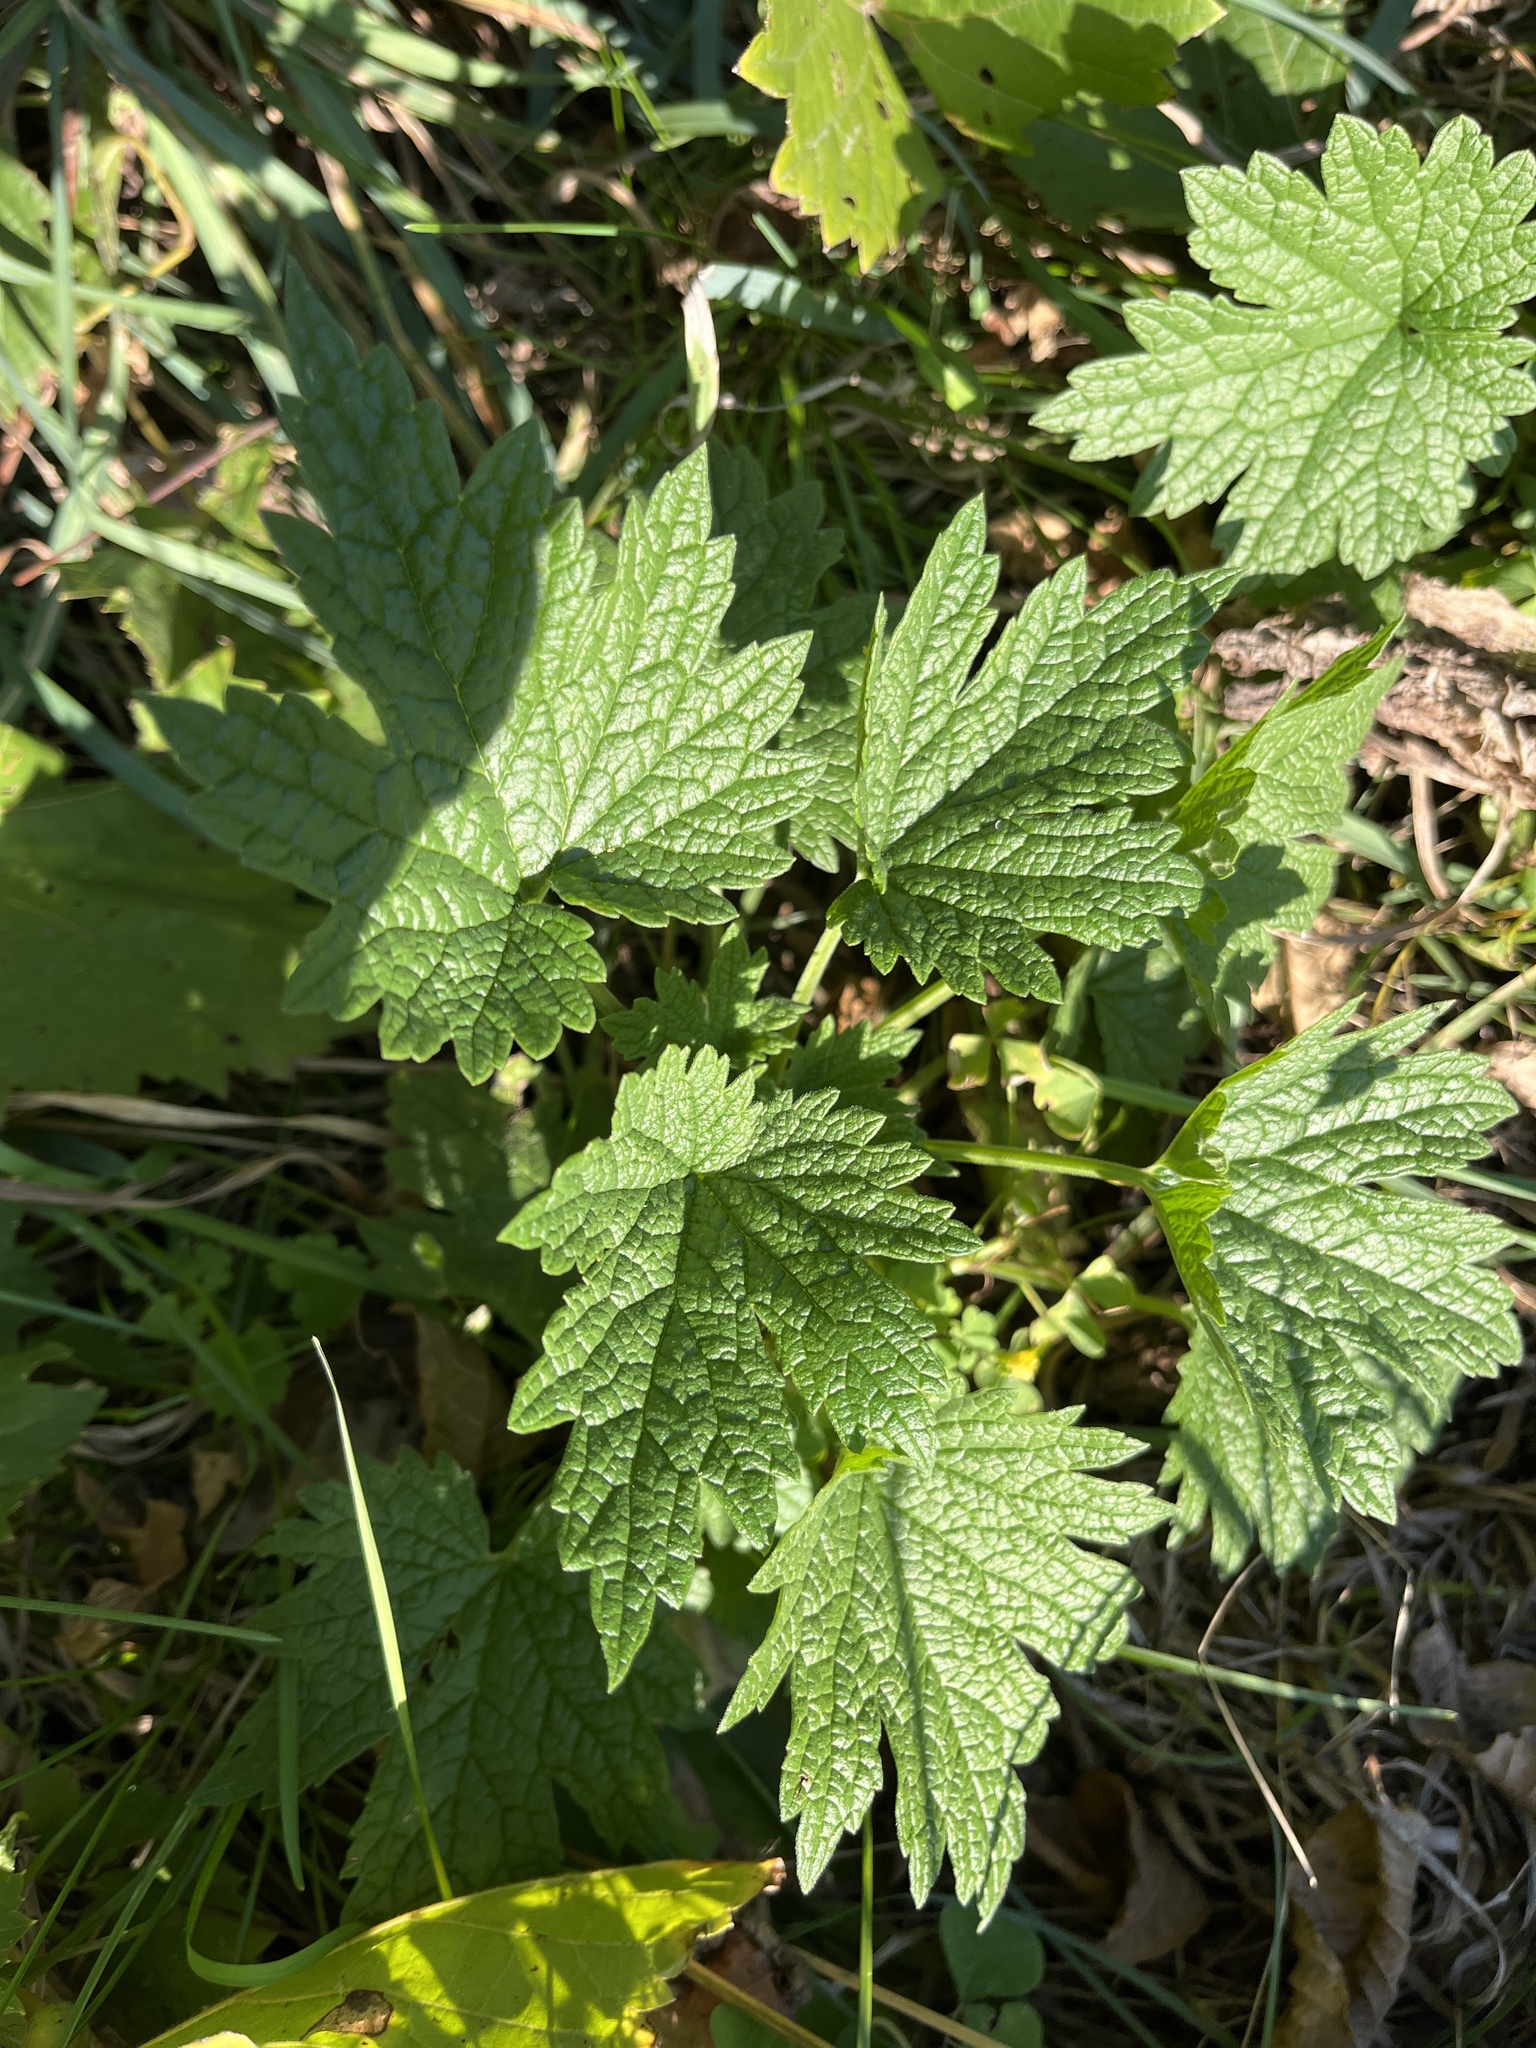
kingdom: Plantae
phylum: Tracheophyta
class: Magnoliopsida
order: Lamiales
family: Lamiaceae
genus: Leonurus
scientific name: Leonurus cardiaca
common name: Motherwort
